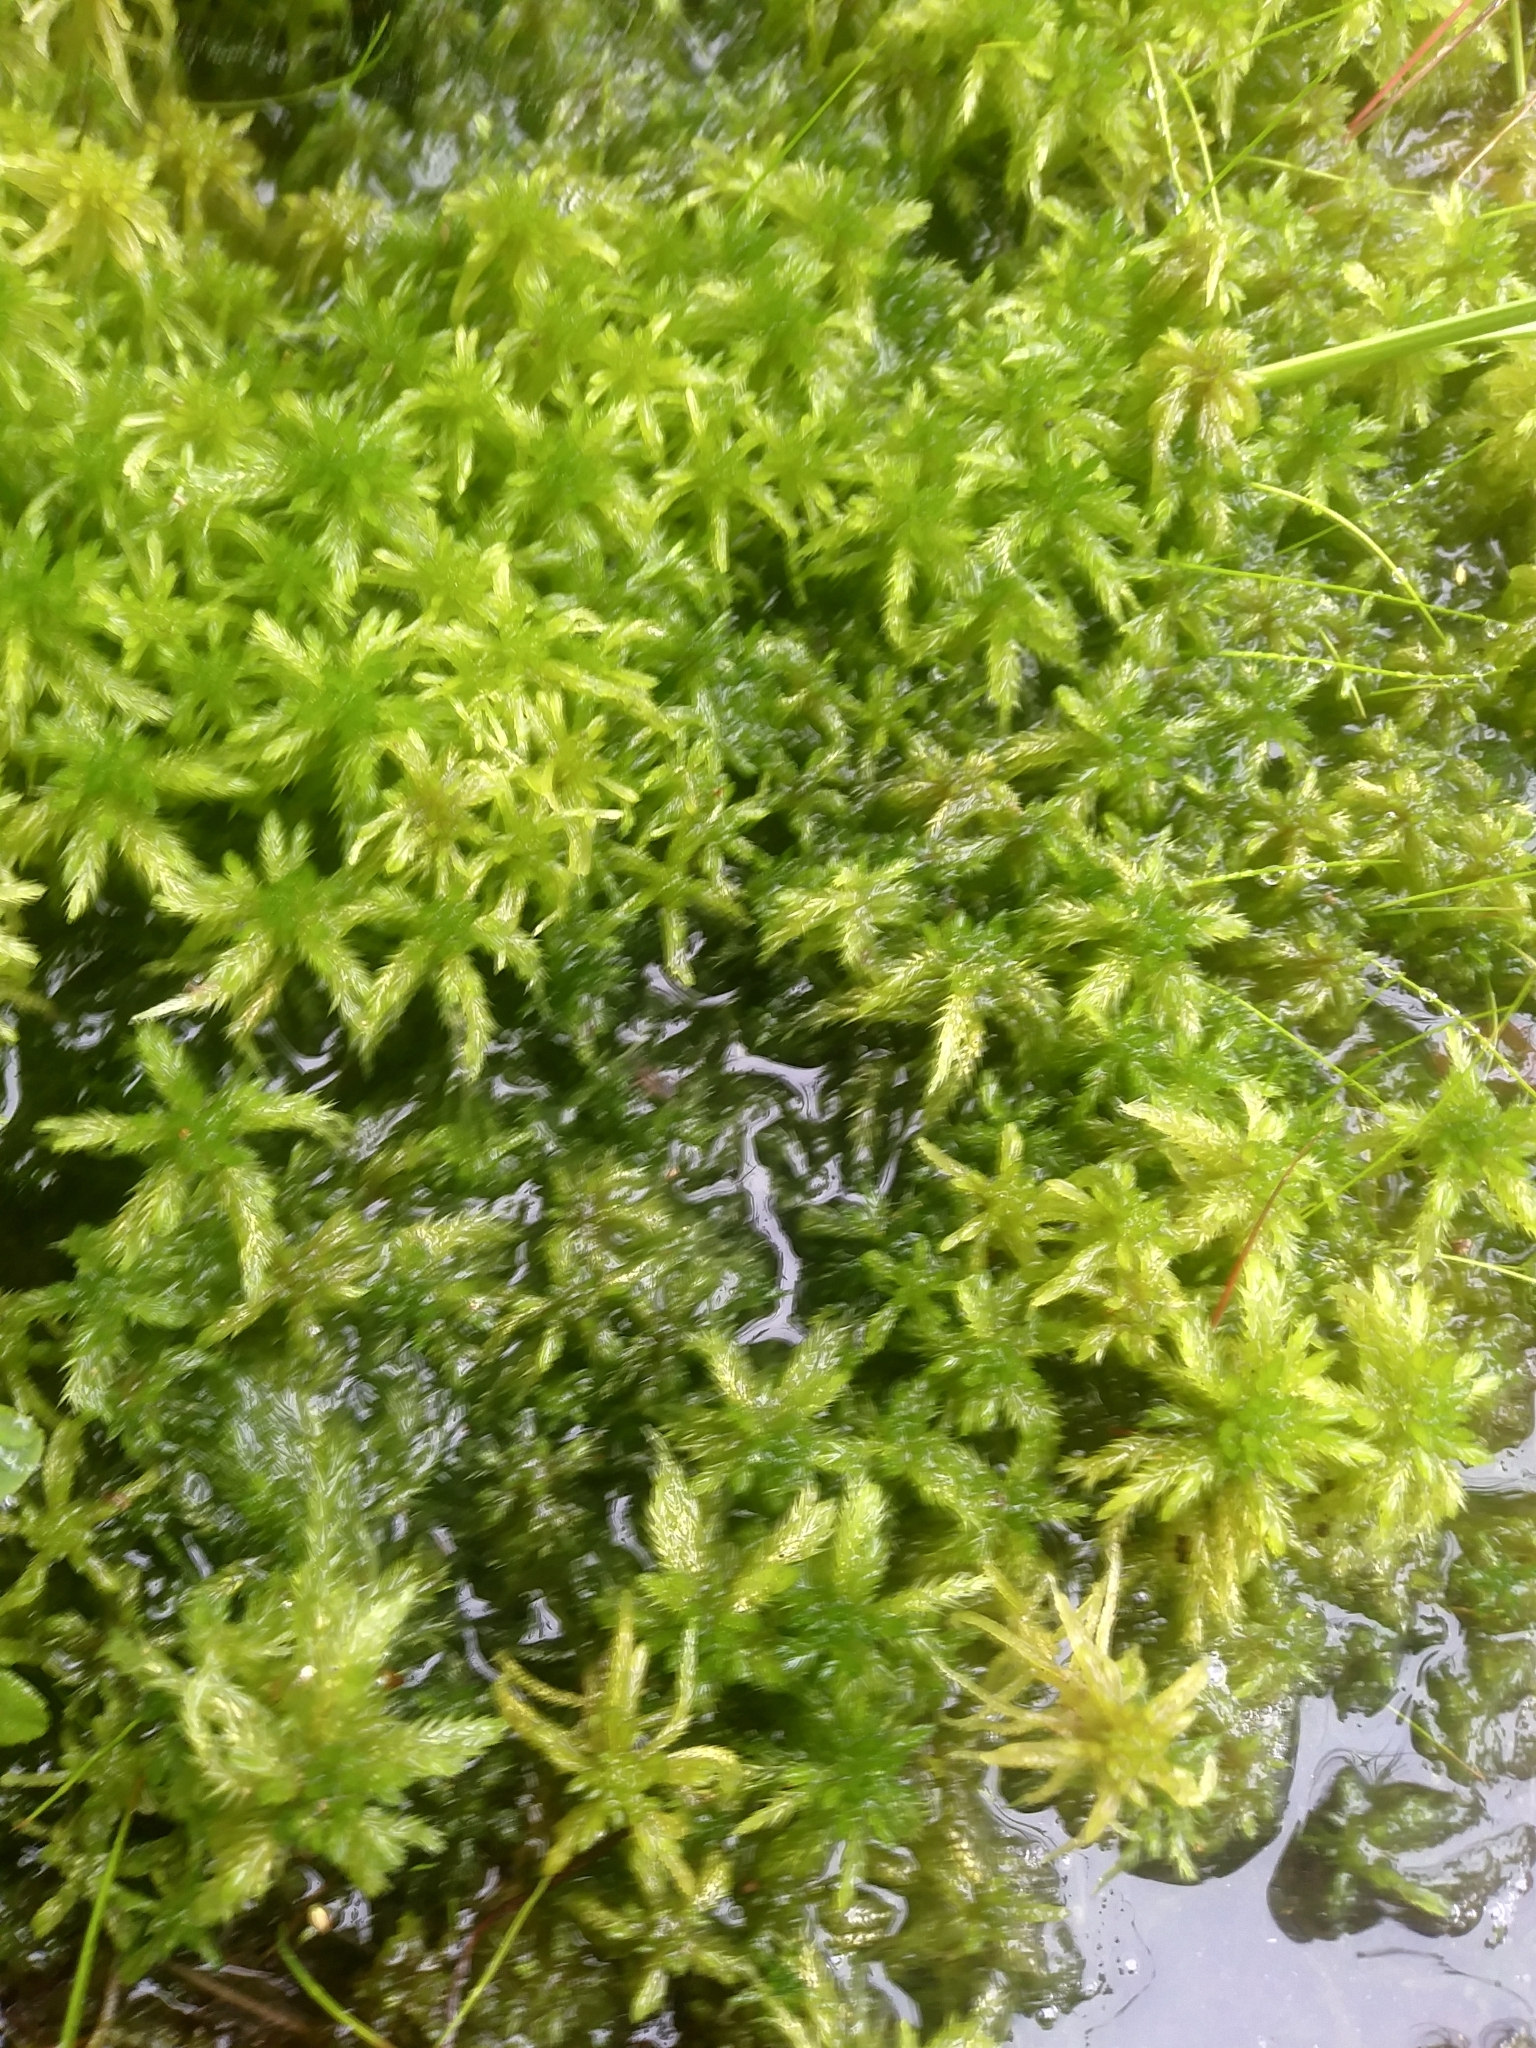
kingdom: Plantae
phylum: Bryophyta
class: Sphagnopsida
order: Sphagnales
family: Sphagnaceae
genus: Sphagnum
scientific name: Sphagnum torreyanum
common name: Torrey's peat moss
